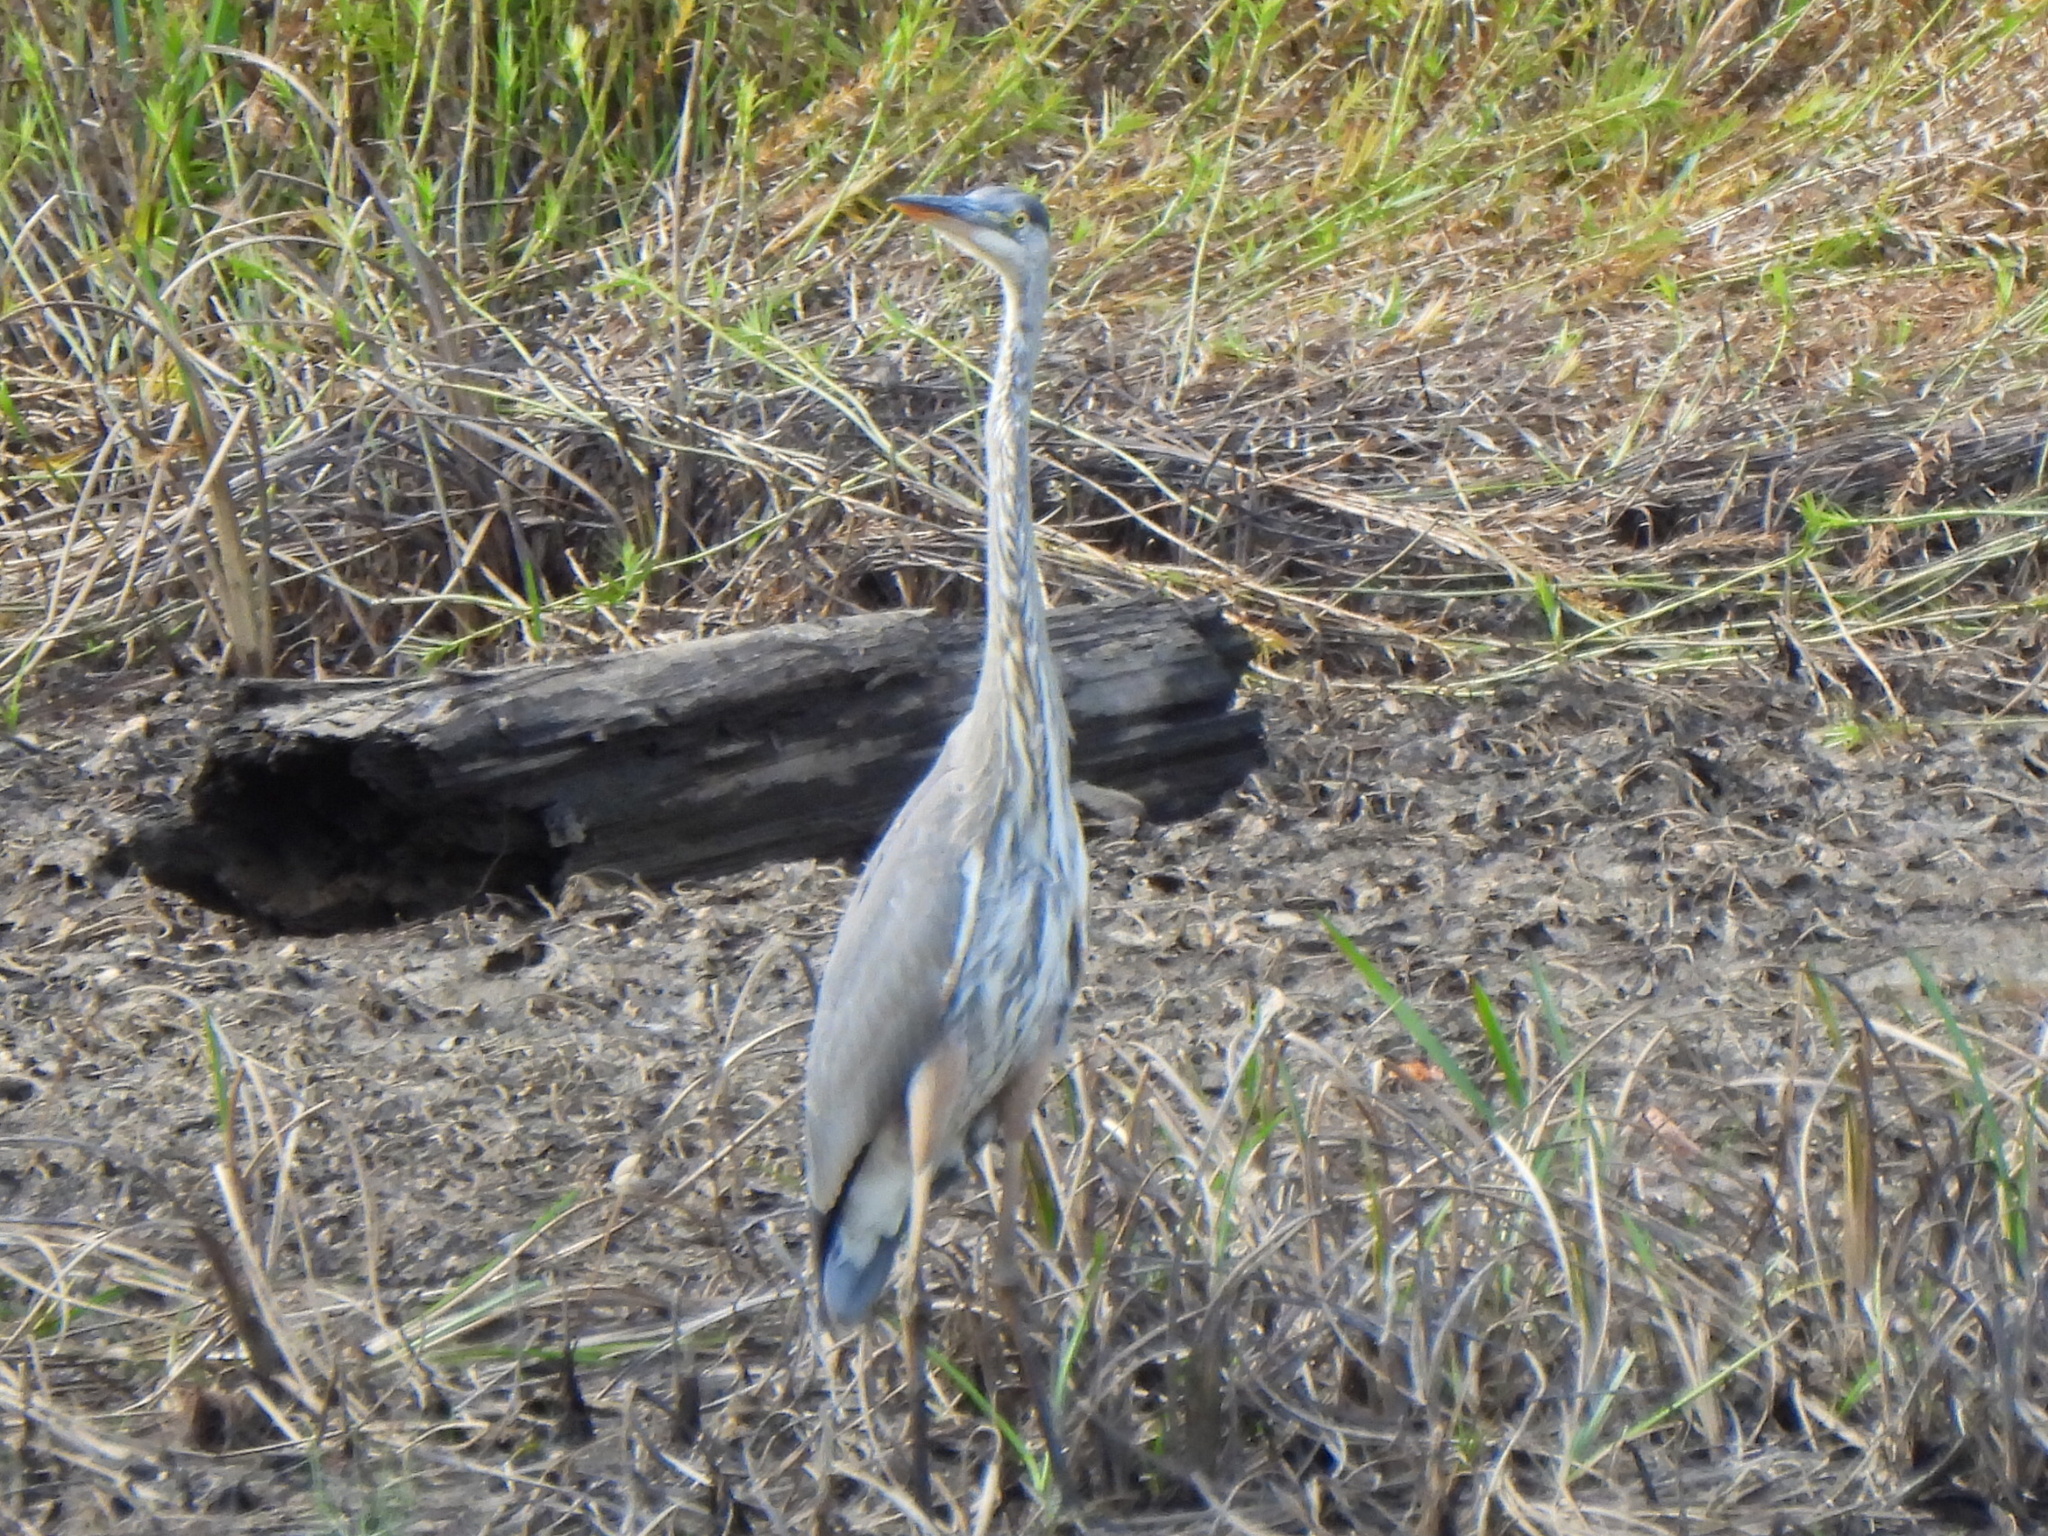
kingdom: Animalia
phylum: Chordata
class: Aves
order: Pelecaniformes
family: Ardeidae
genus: Ardea
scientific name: Ardea herodias
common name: Great blue heron
